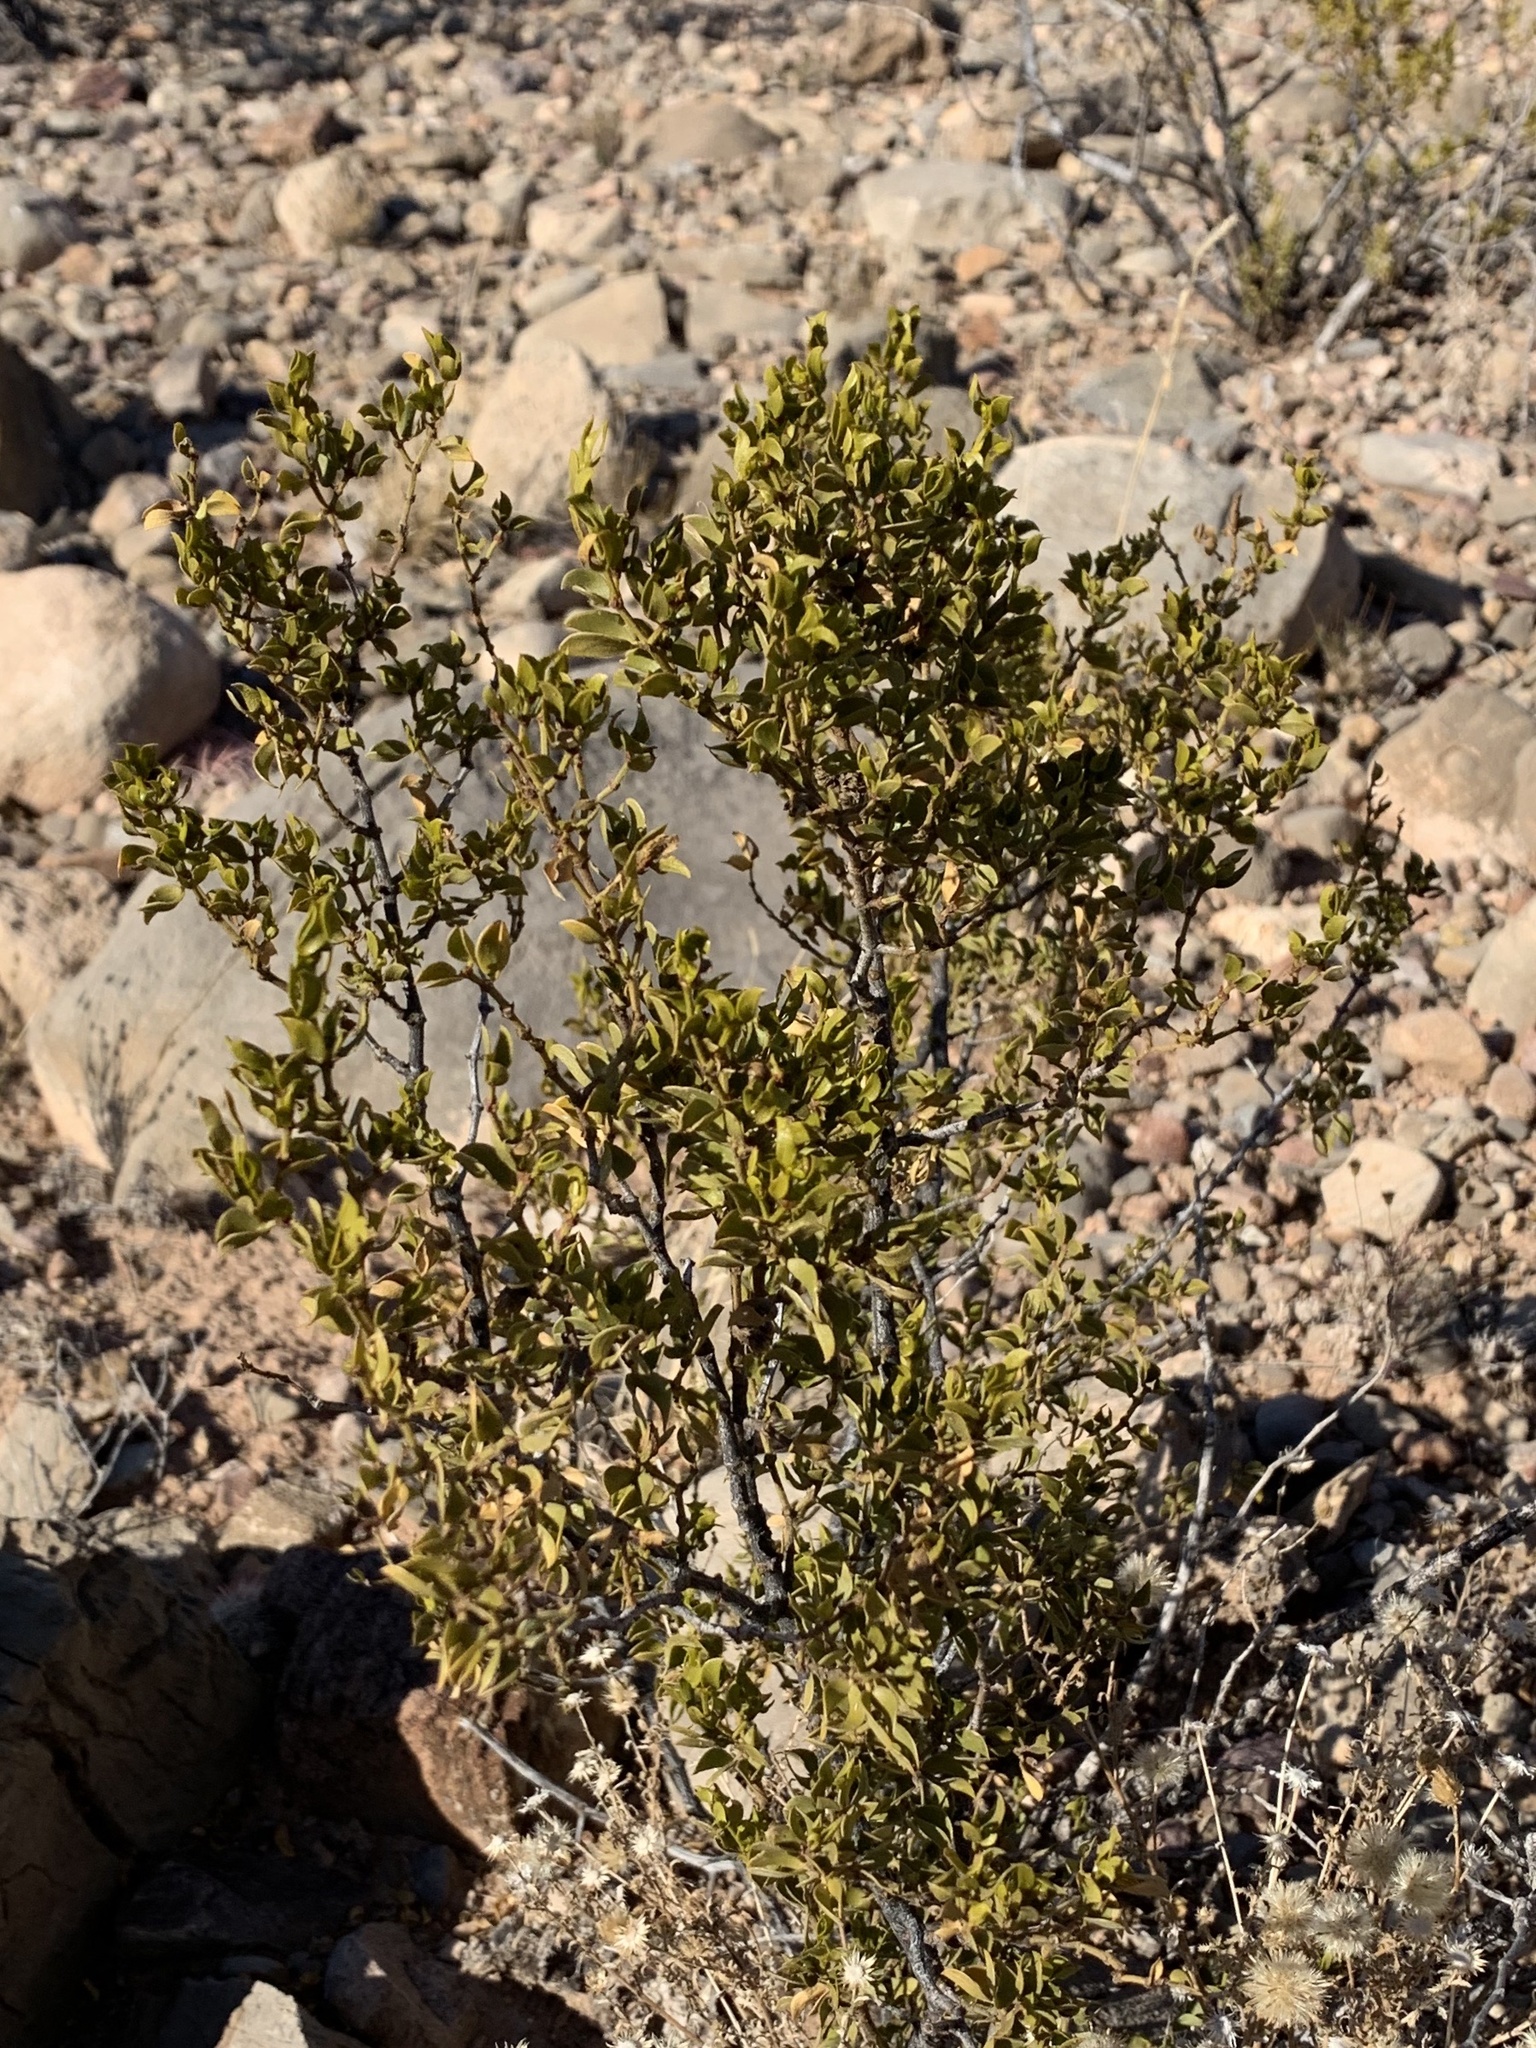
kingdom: Plantae
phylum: Tracheophyta
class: Magnoliopsida
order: Zygophyllales
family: Zygophyllaceae
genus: Larrea
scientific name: Larrea tridentata
